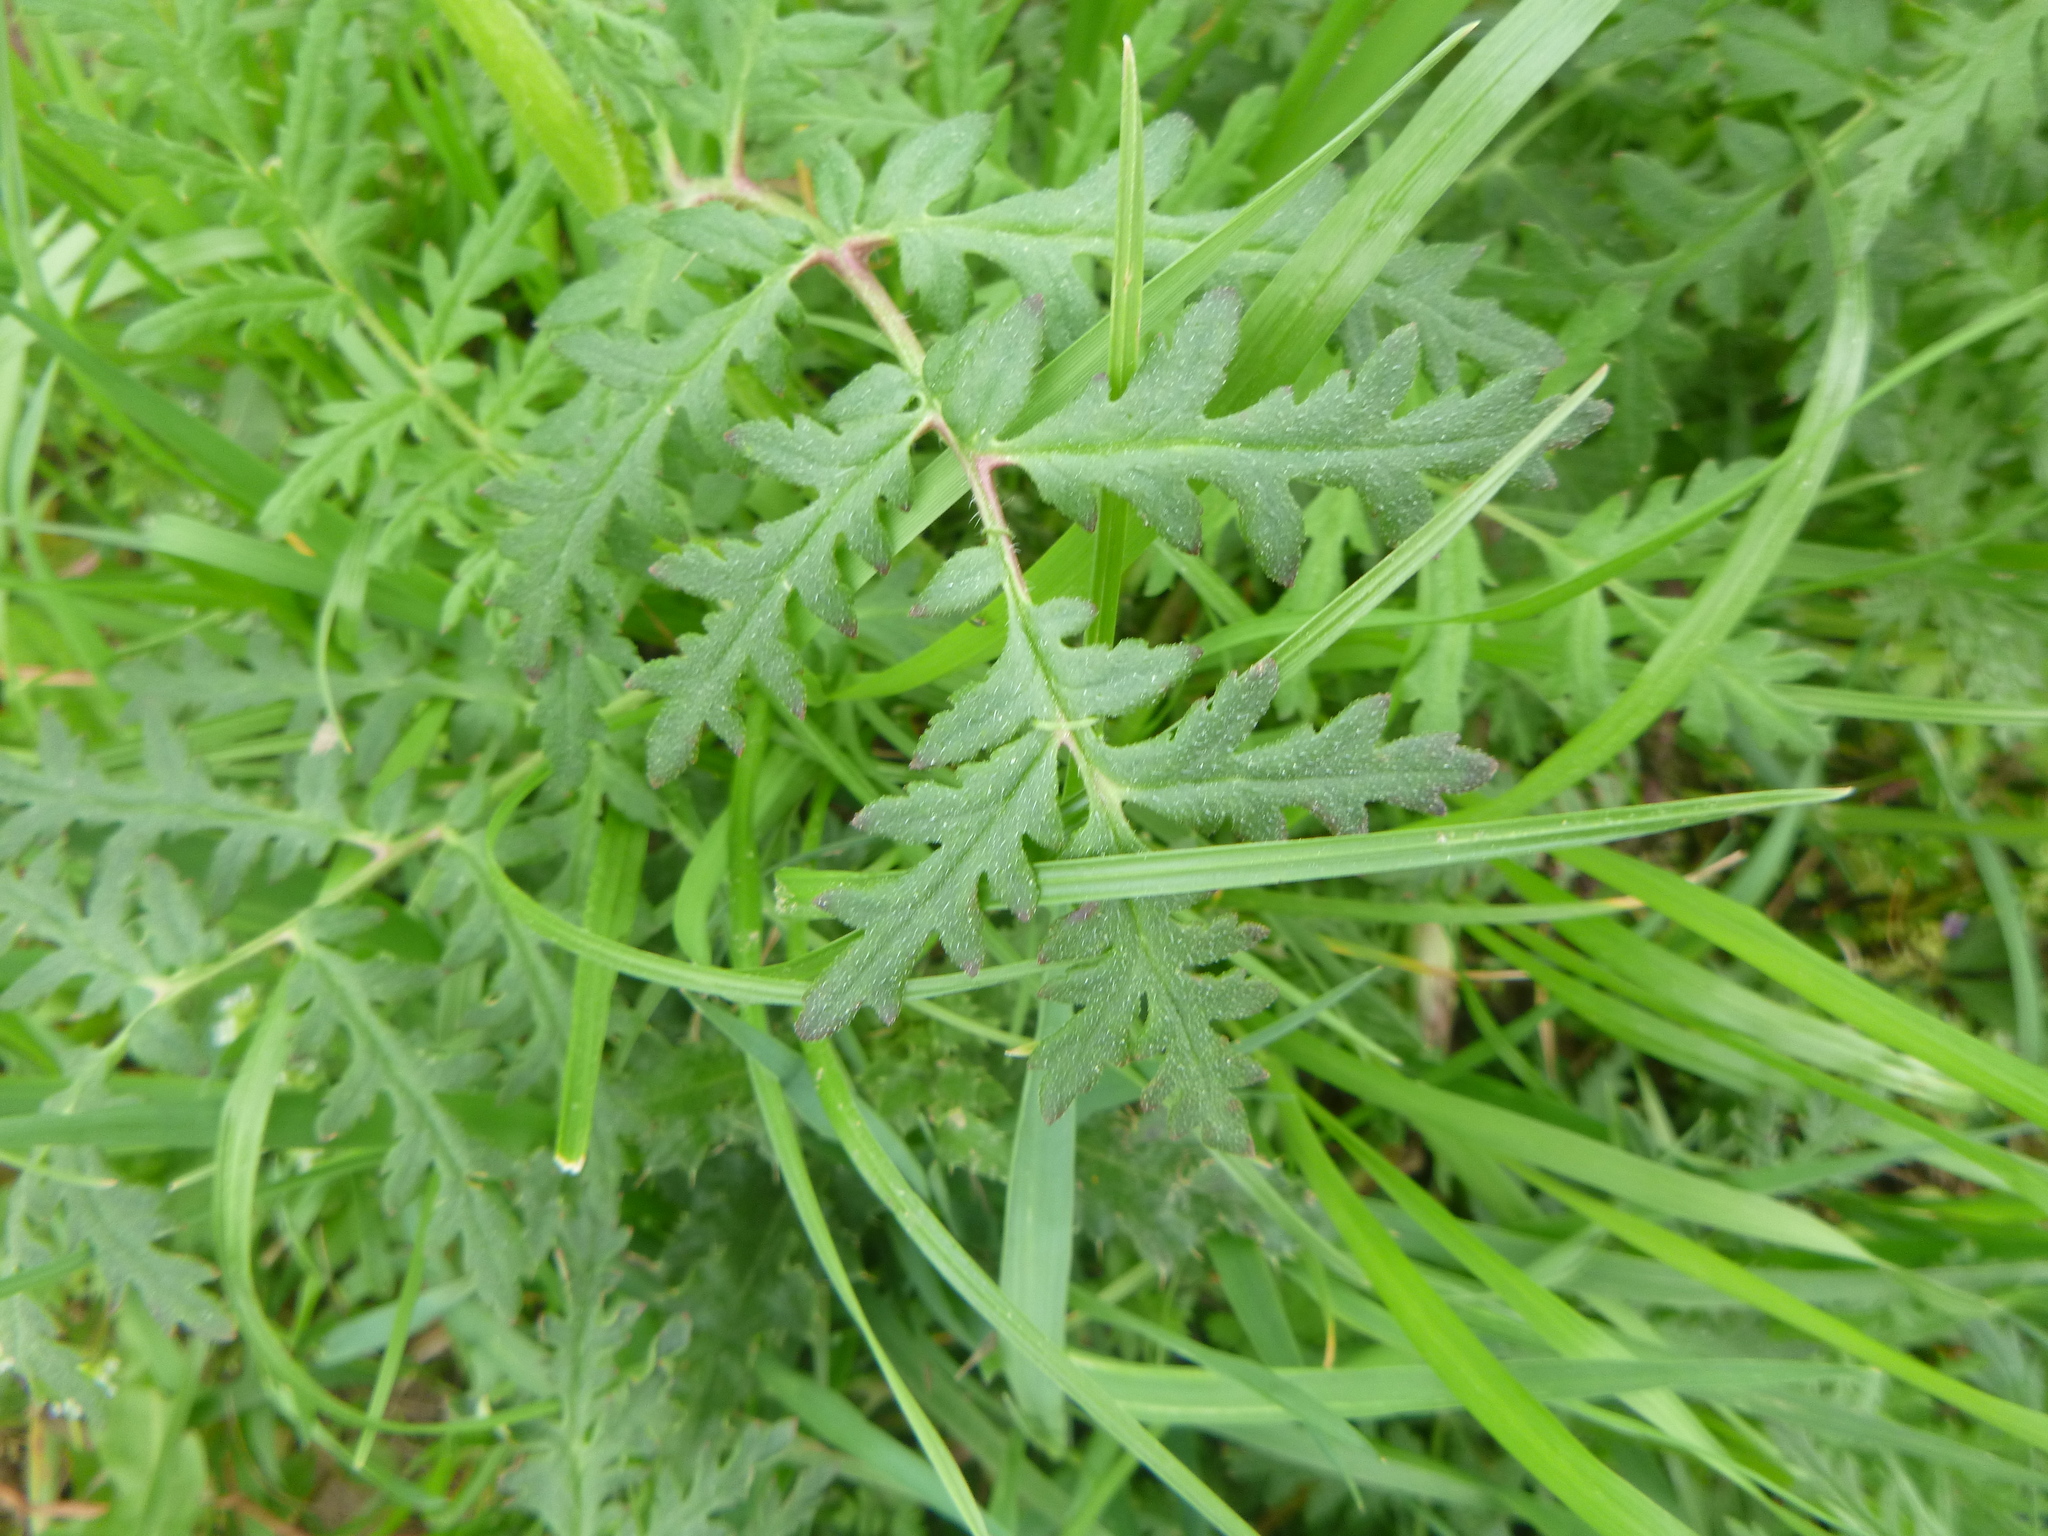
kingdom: Plantae
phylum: Tracheophyta
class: Magnoliopsida
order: Boraginales
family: Hydrophyllaceae
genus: Phacelia
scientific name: Phacelia tanacetifolia
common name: Phacelia
